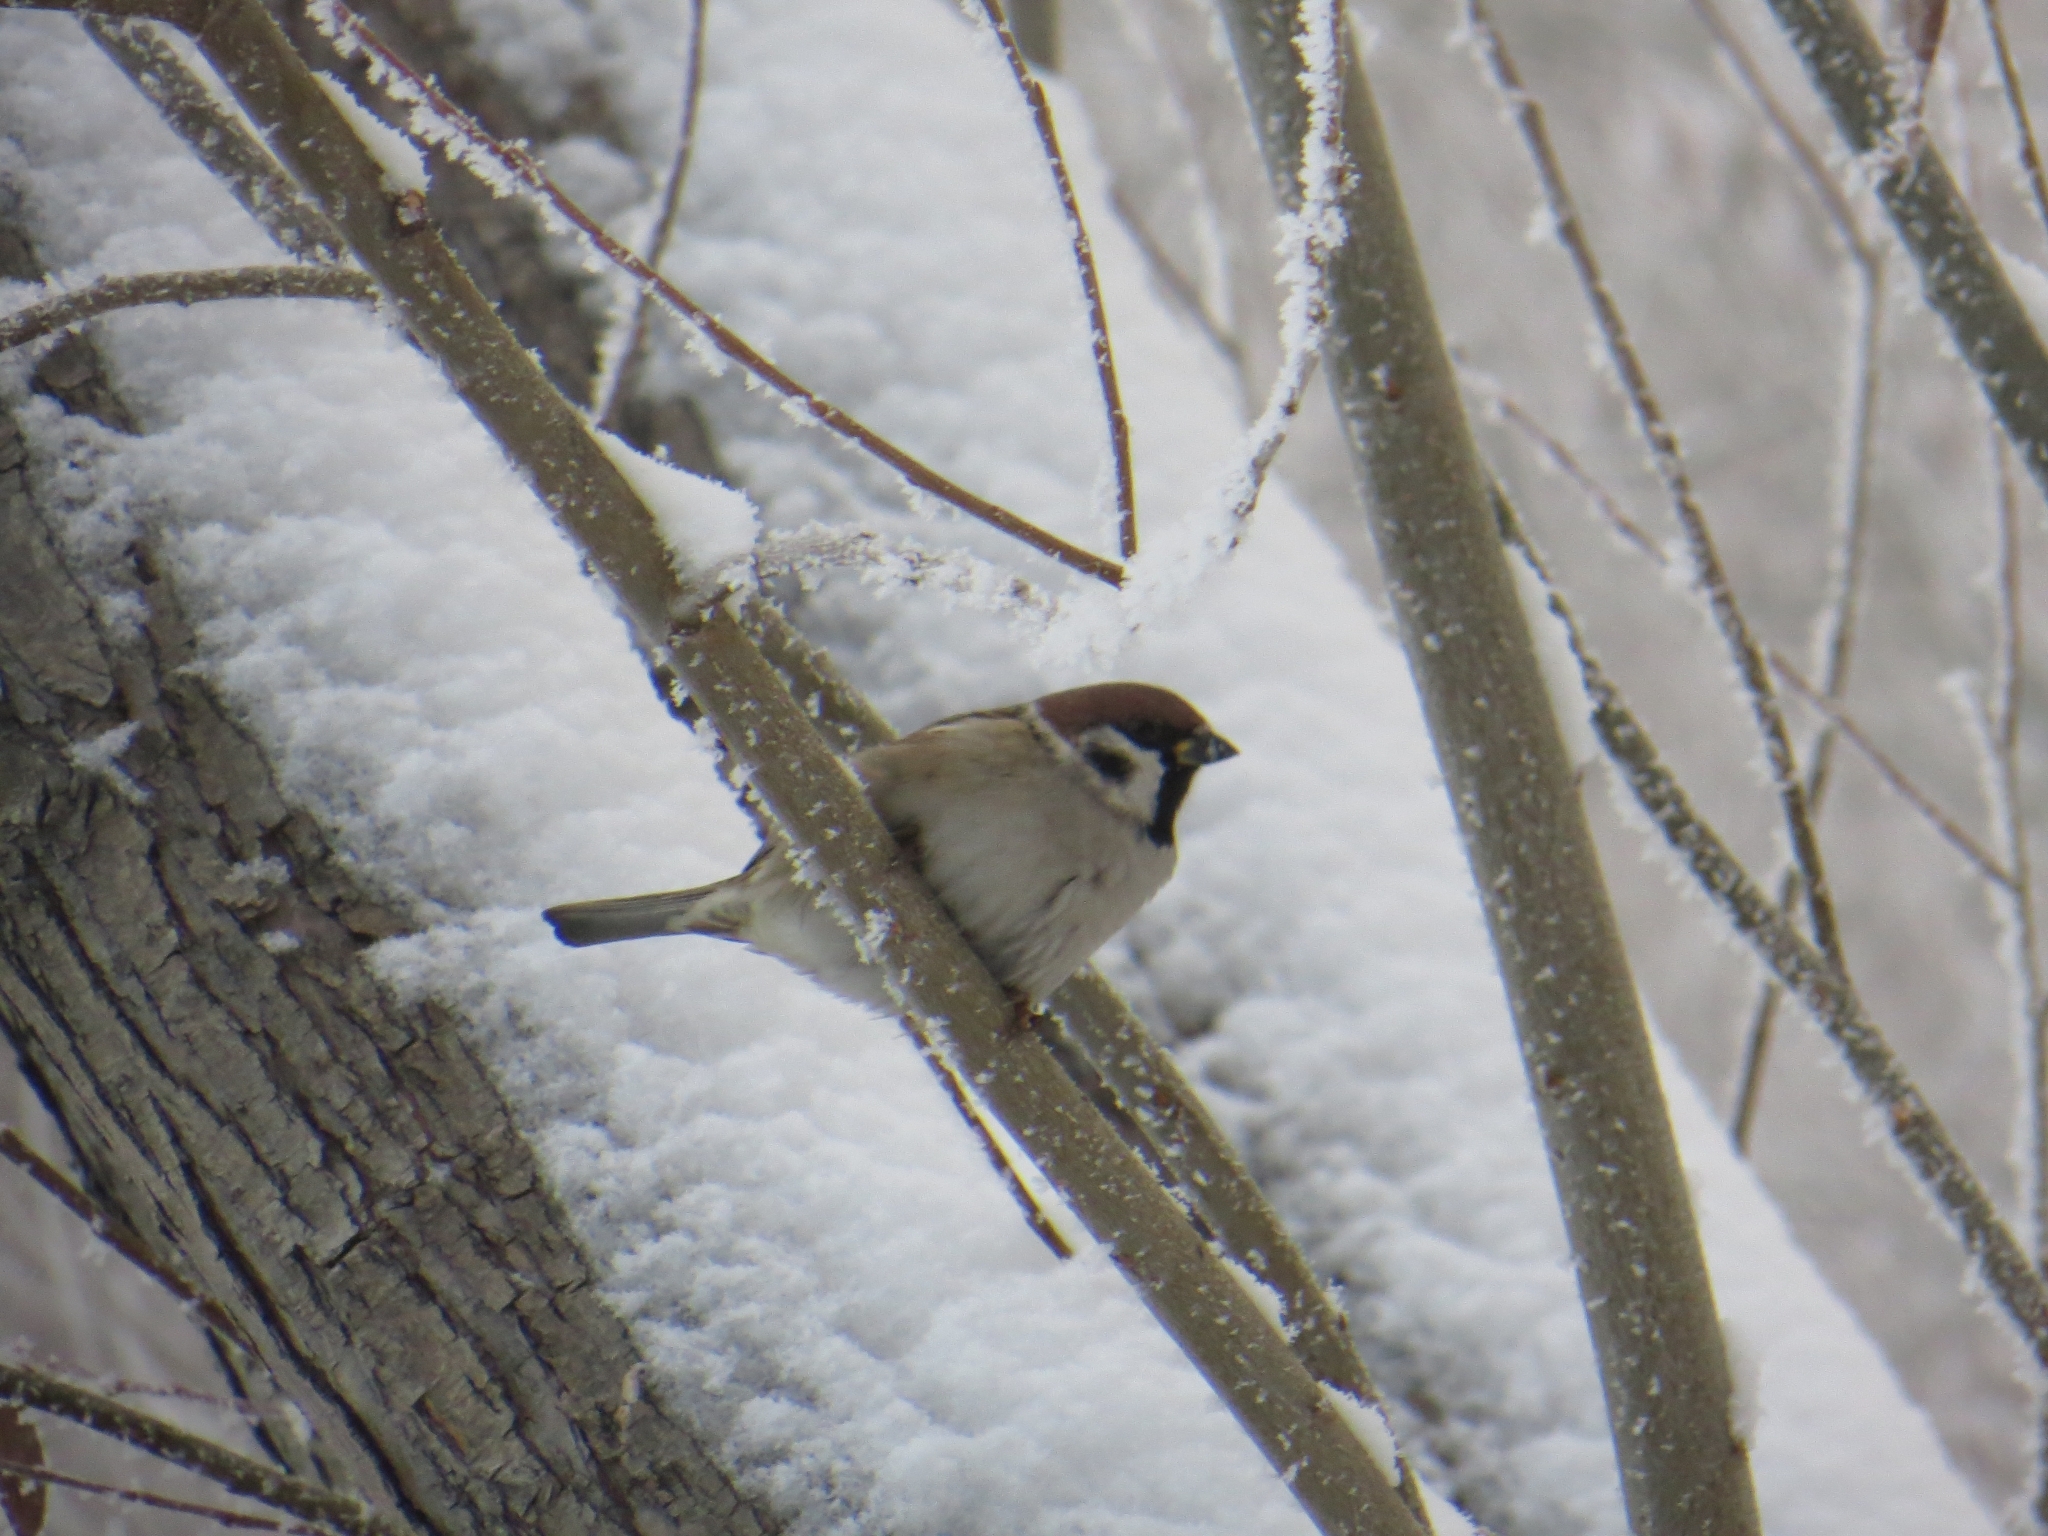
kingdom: Animalia
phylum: Chordata
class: Aves
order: Passeriformes
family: Passeridae
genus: Passer
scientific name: Passer montanus
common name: Eurasian tree sparrow
